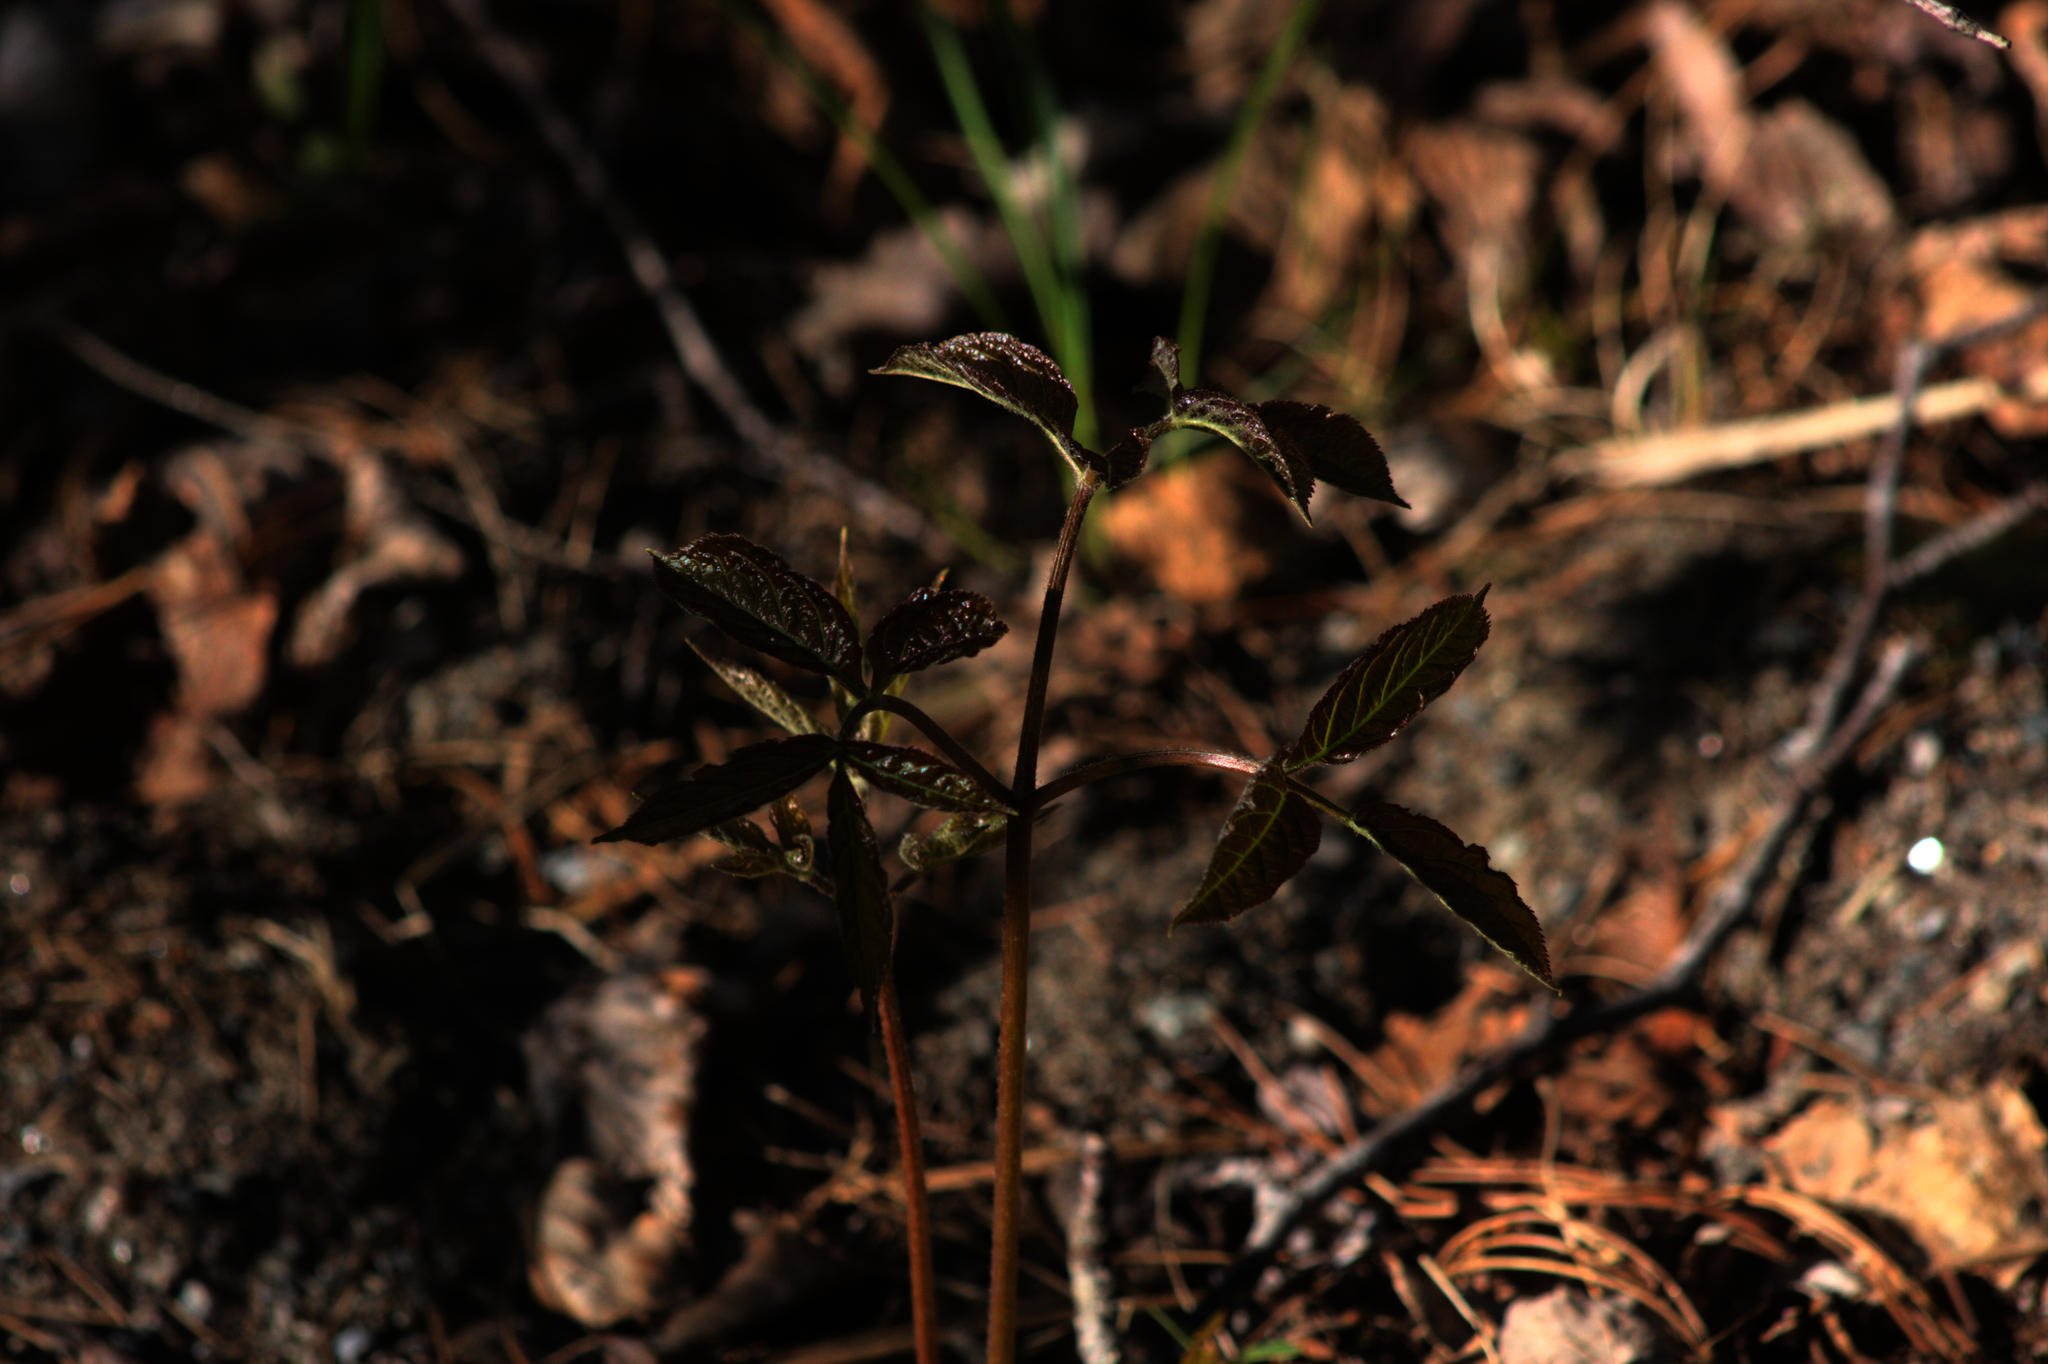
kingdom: Plantae
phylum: Tracheophyta
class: Magnoliopsida
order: Apiales
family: Araliaceae
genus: Aralia
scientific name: Aralia nudicaulis
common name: Wild sarsaparilla
